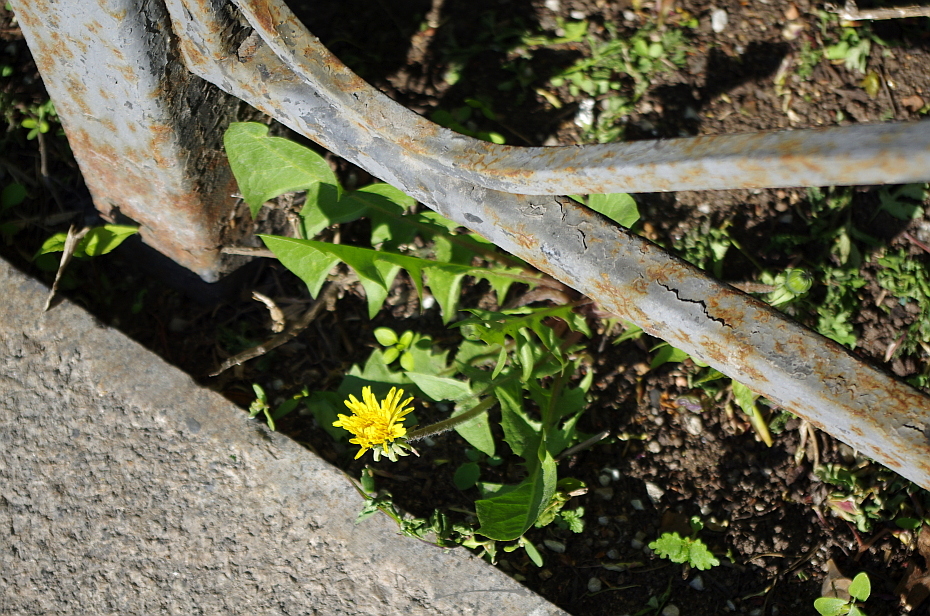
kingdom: Plantae
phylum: Tracheophyta
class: Magnoliopsida
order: Asterales
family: Asteraceae
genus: Taraxacum
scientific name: Taraxacum officinale
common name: Common dandelion
